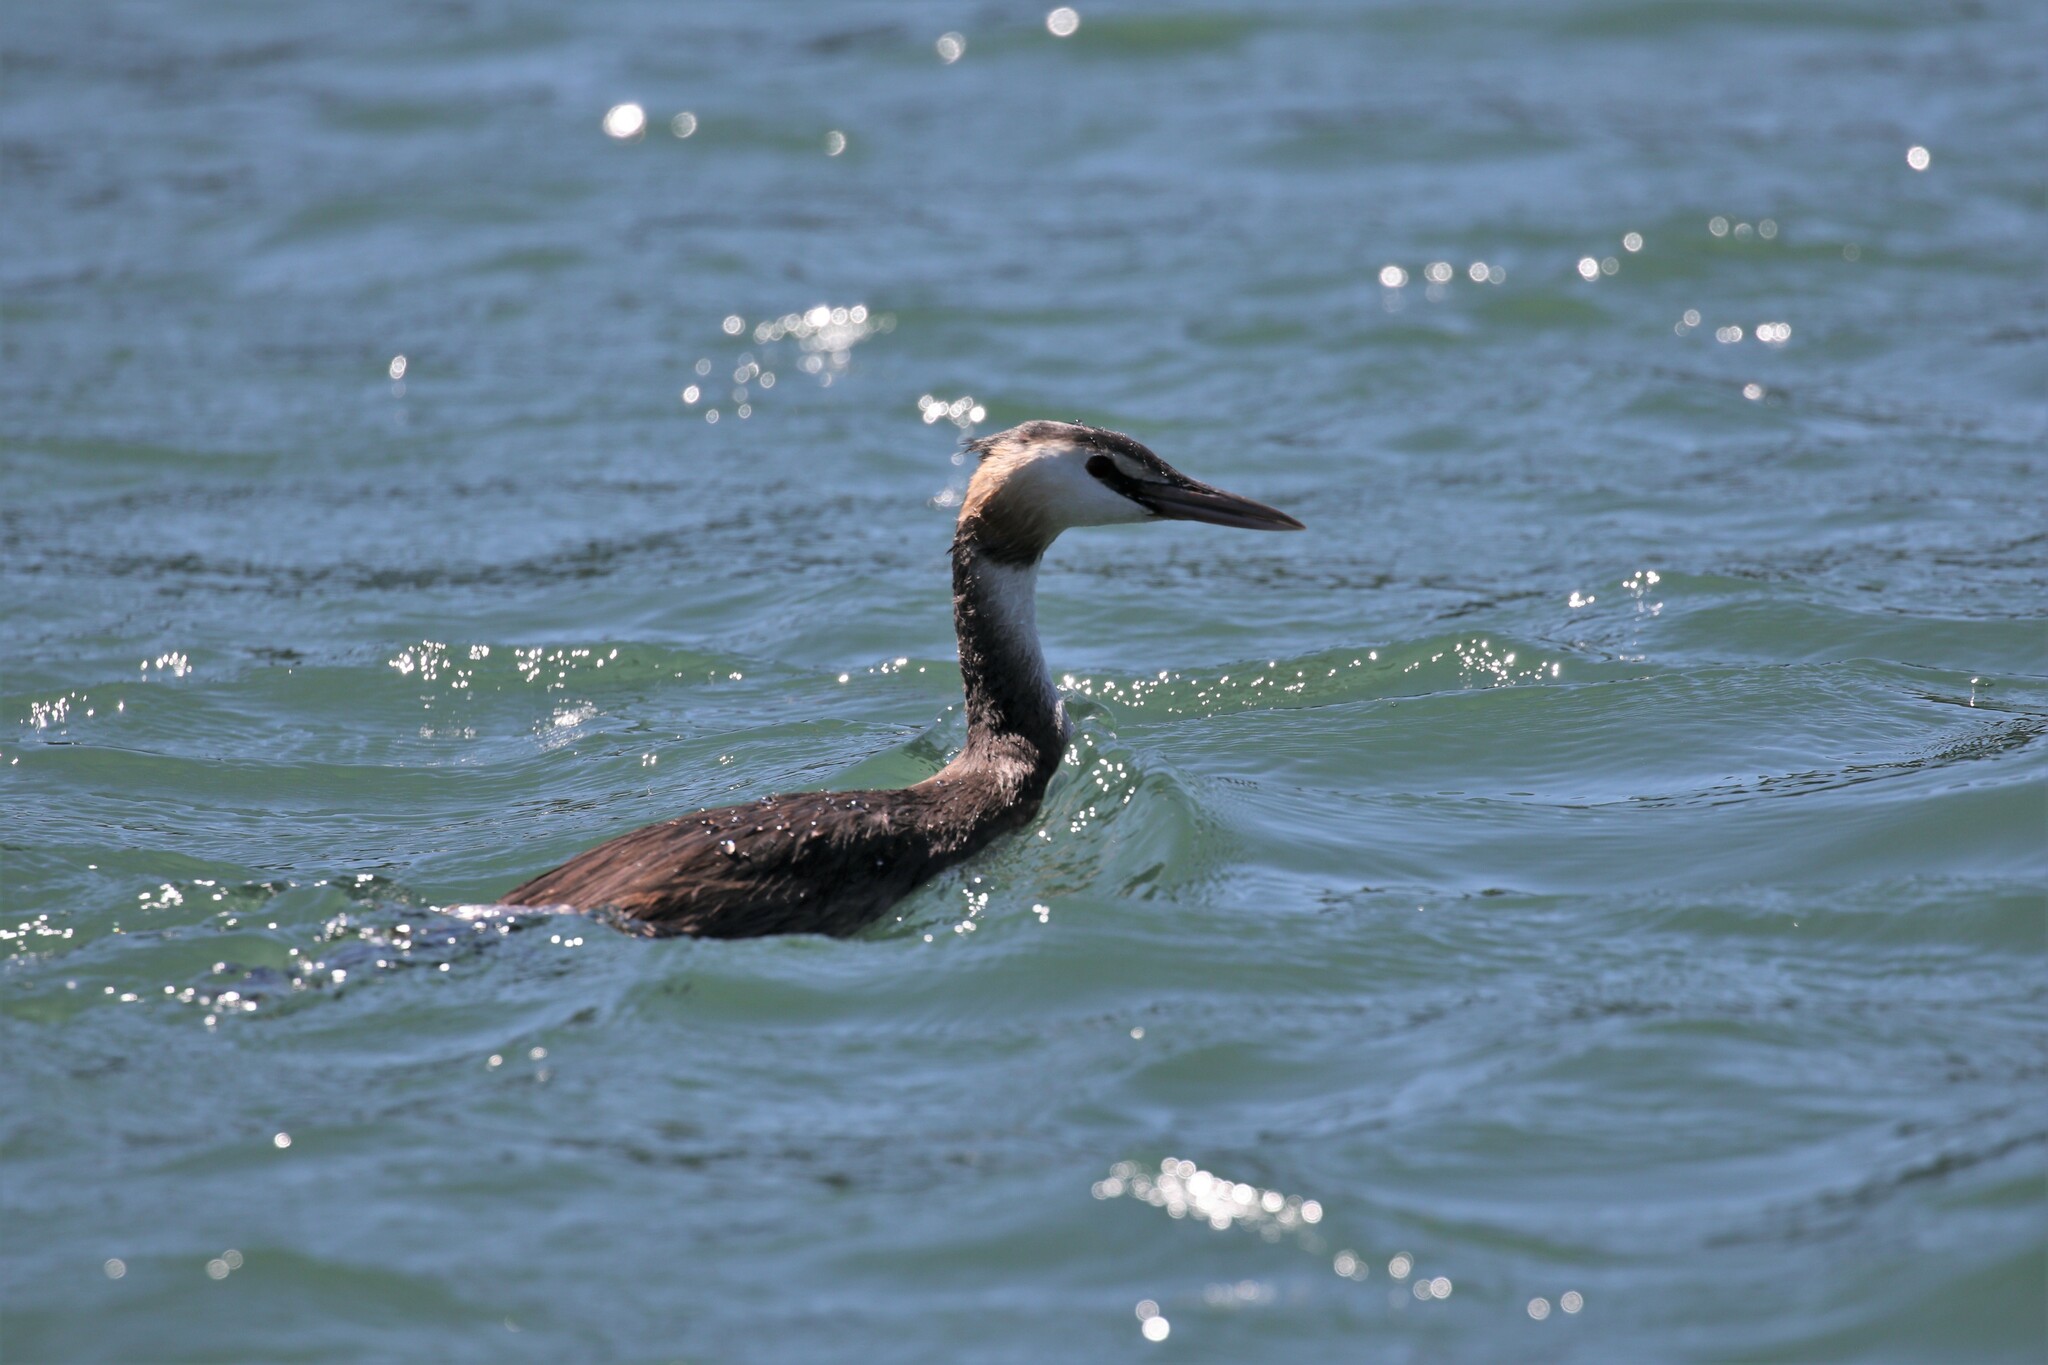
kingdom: Animalia
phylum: Chordata
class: Aves
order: Podicipediformes
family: Podicipedidae
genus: Podiceps
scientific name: Podiceps cristatus
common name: Great crested grebe
